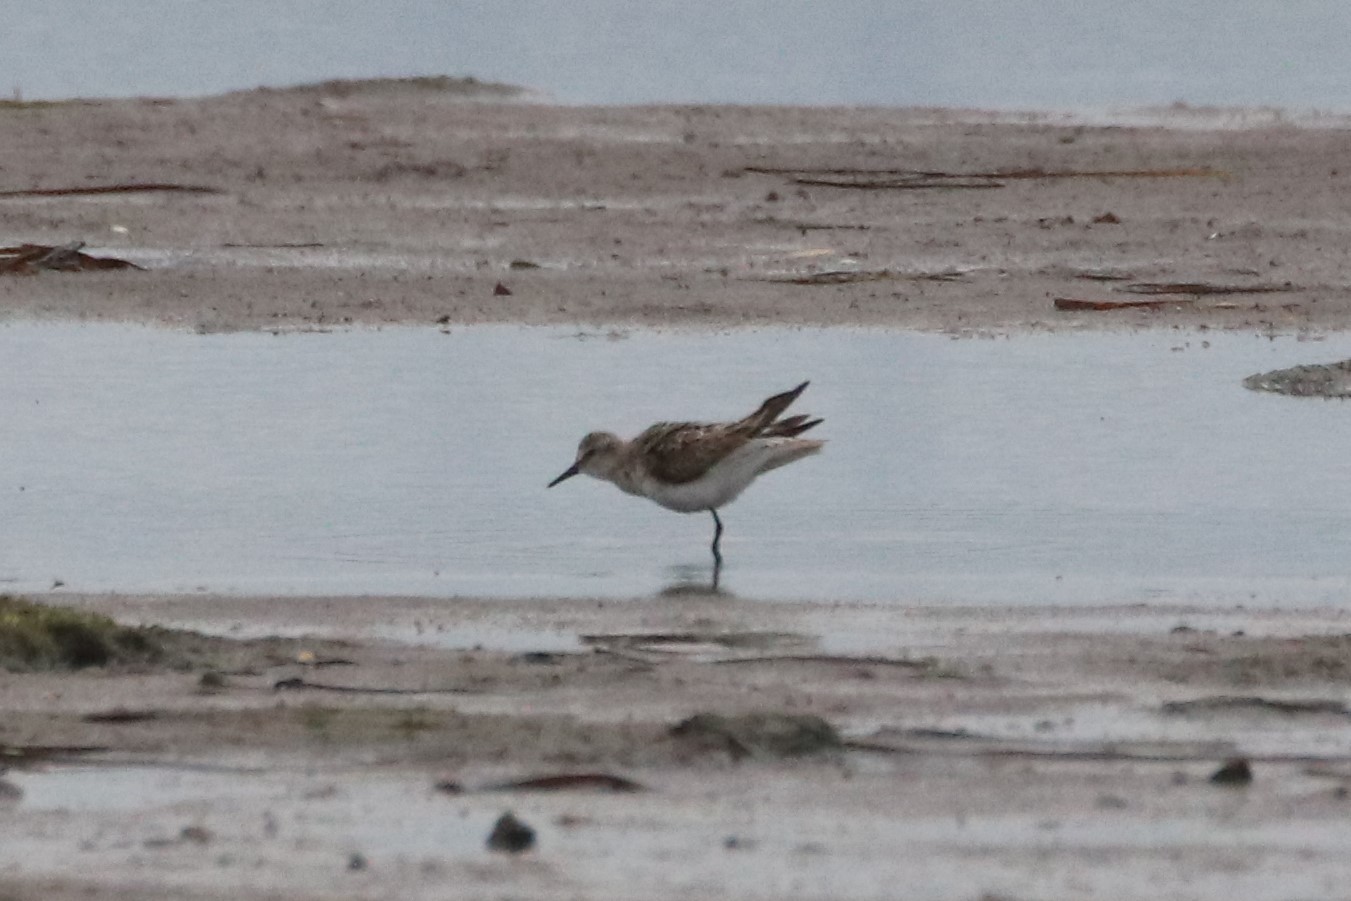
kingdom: Animalia
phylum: Chordata
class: Aves
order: Charadriiformes
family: Scolopacidae
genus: Calidris
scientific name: Calidris pusilla
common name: Semipalmated sandpiper
